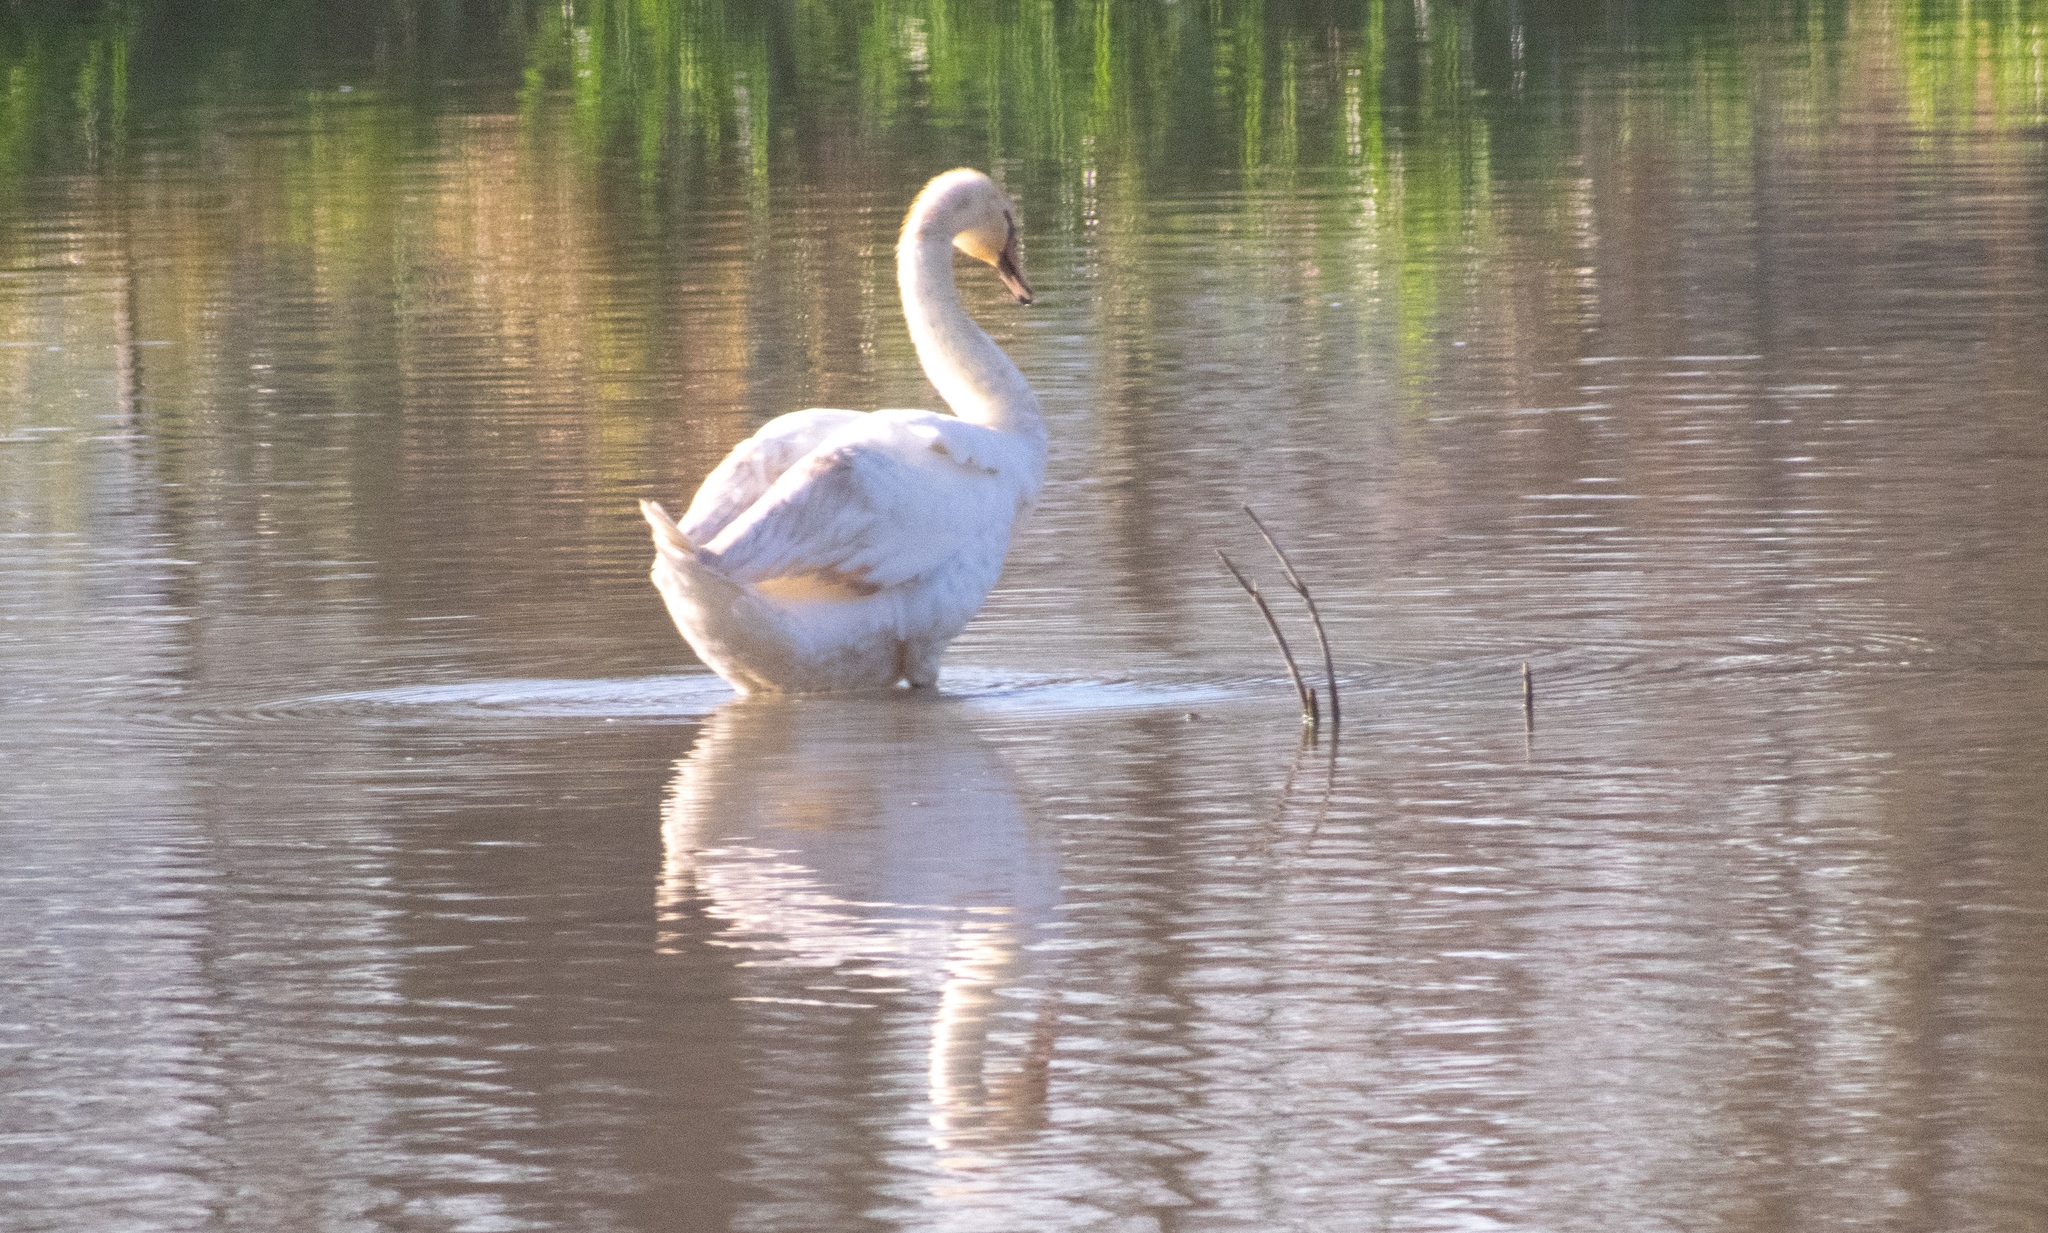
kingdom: Animalia
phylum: Chordata
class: Aves
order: Anseriformes
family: Anatidae
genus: Cygnus
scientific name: Cygnus olor
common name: Mute swan
